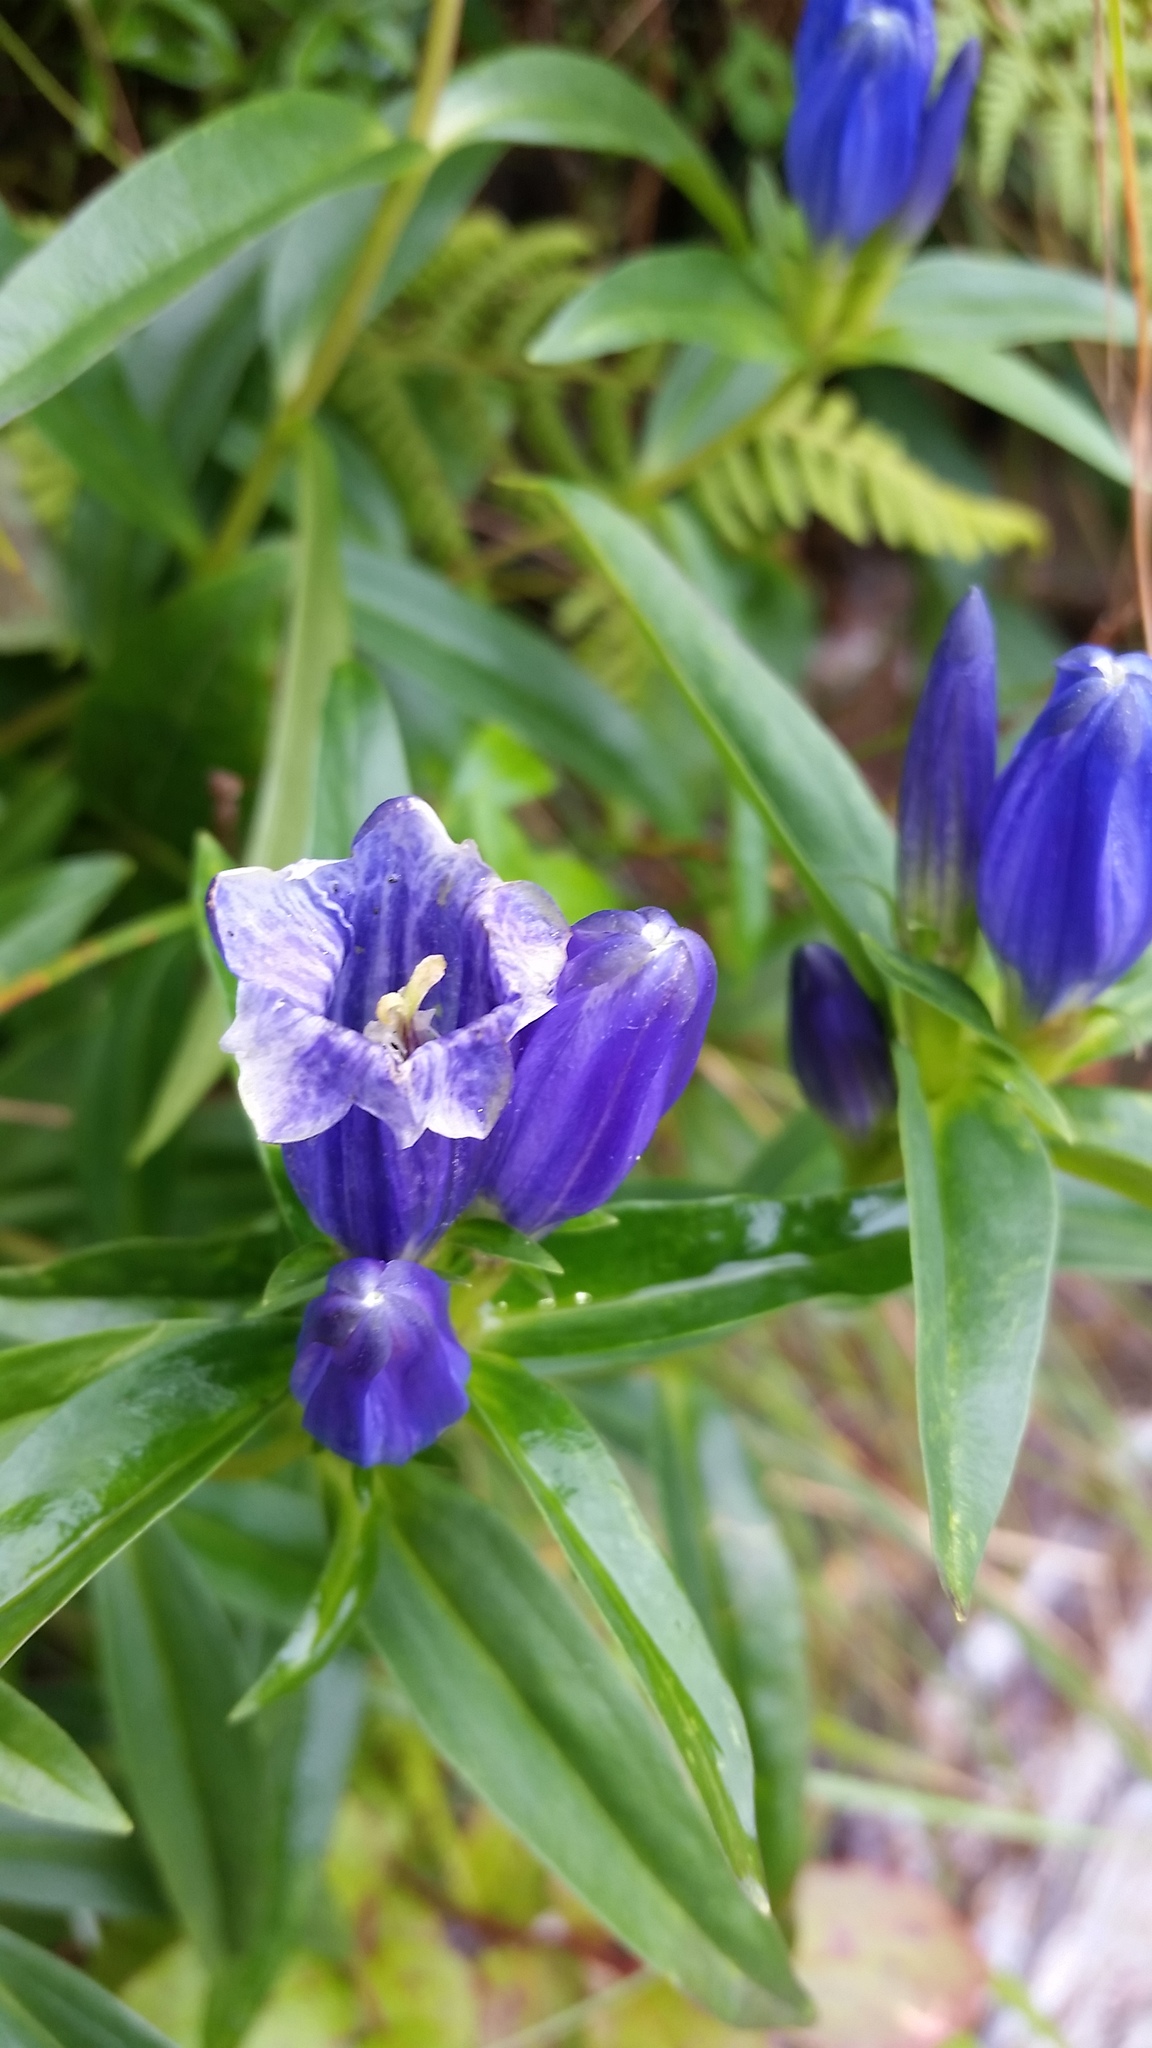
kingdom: Plantae
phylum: Tracheophyta
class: Magnoliopsida
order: Gentianales
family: Gentianaceae
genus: Gentiana
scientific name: Gentiana linearis
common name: Bastard gentian
